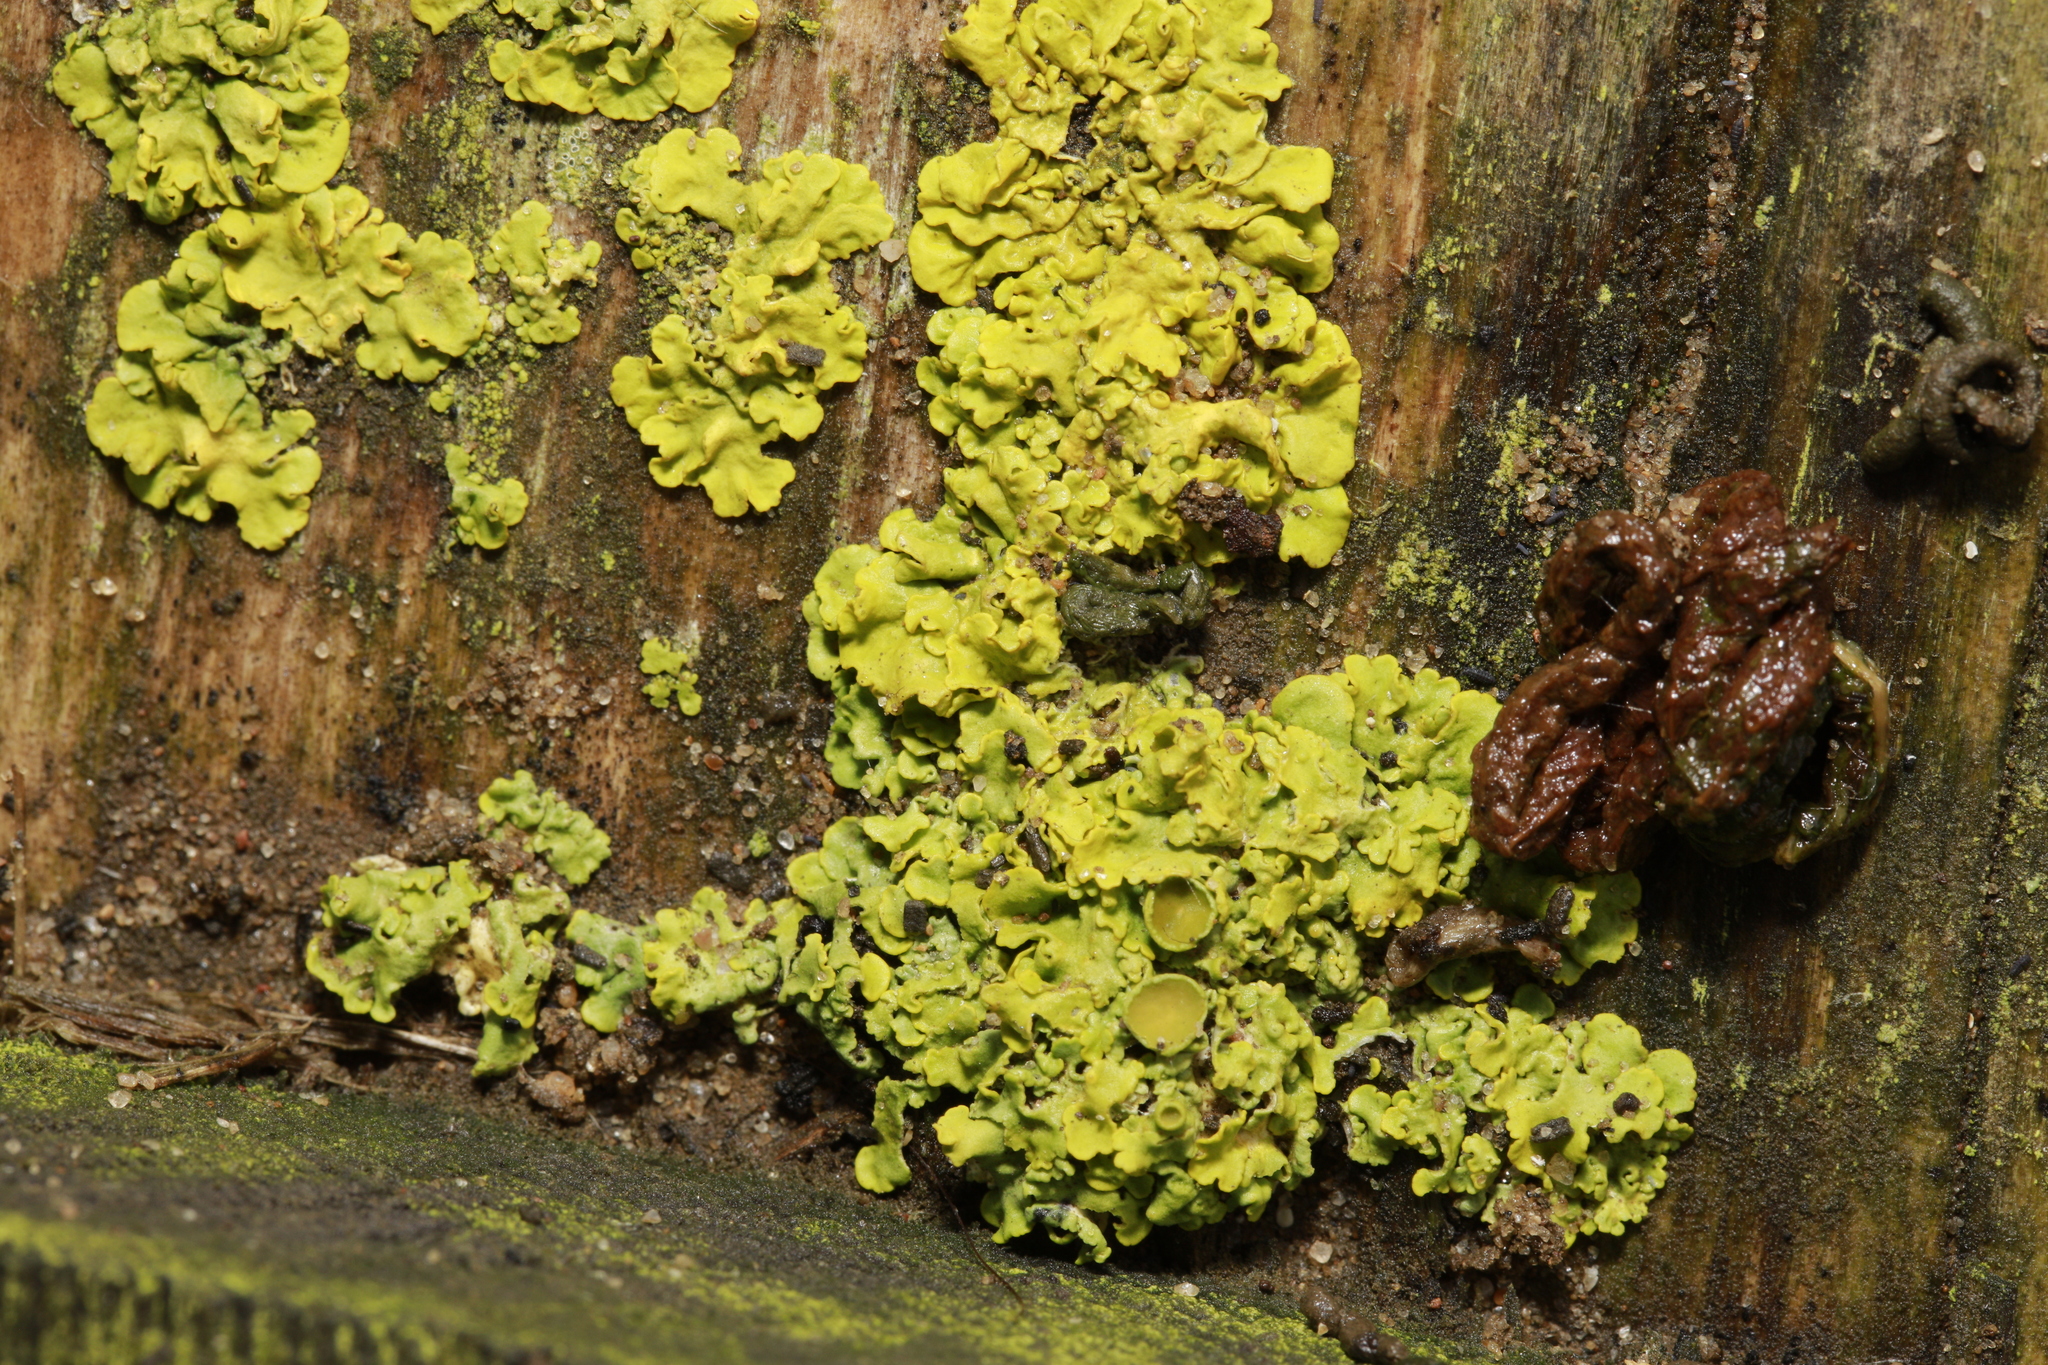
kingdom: Fungi
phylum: Ascomycota
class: Lecanoromycetes
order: Teloschistales
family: Teloschistaceae
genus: Xanthoria
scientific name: Xanthoria parietina
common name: Common orange lichen
